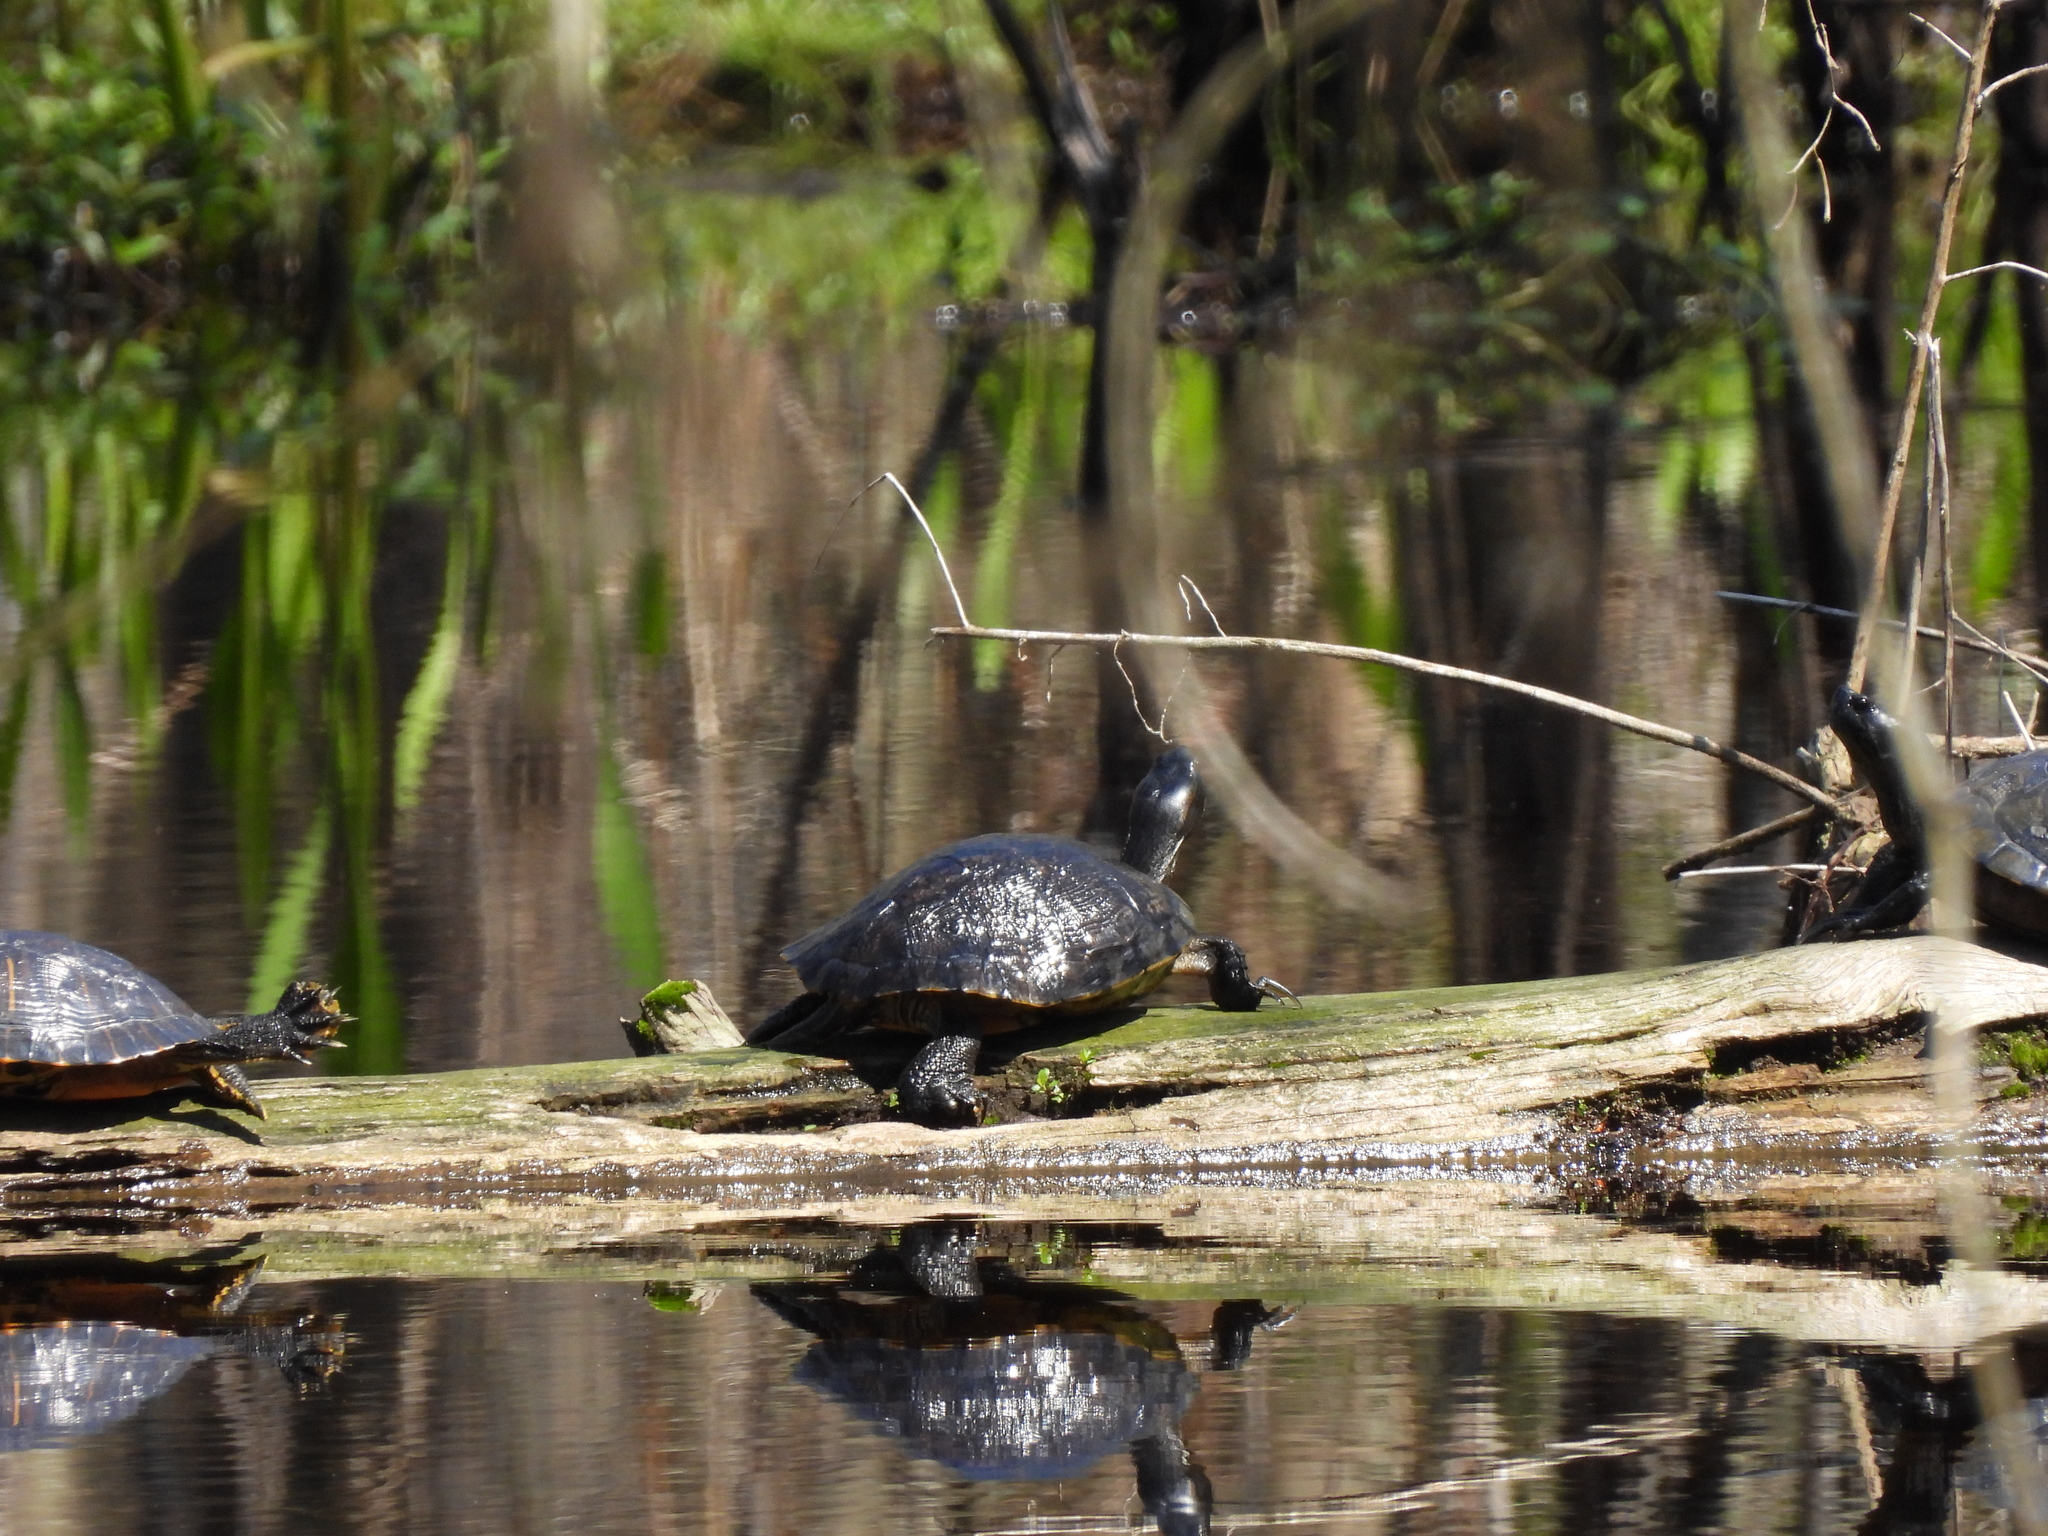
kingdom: Animalia
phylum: Chordata
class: Testudines
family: Emydidae
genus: Trachemys
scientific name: Trachemys scripta
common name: Slider
